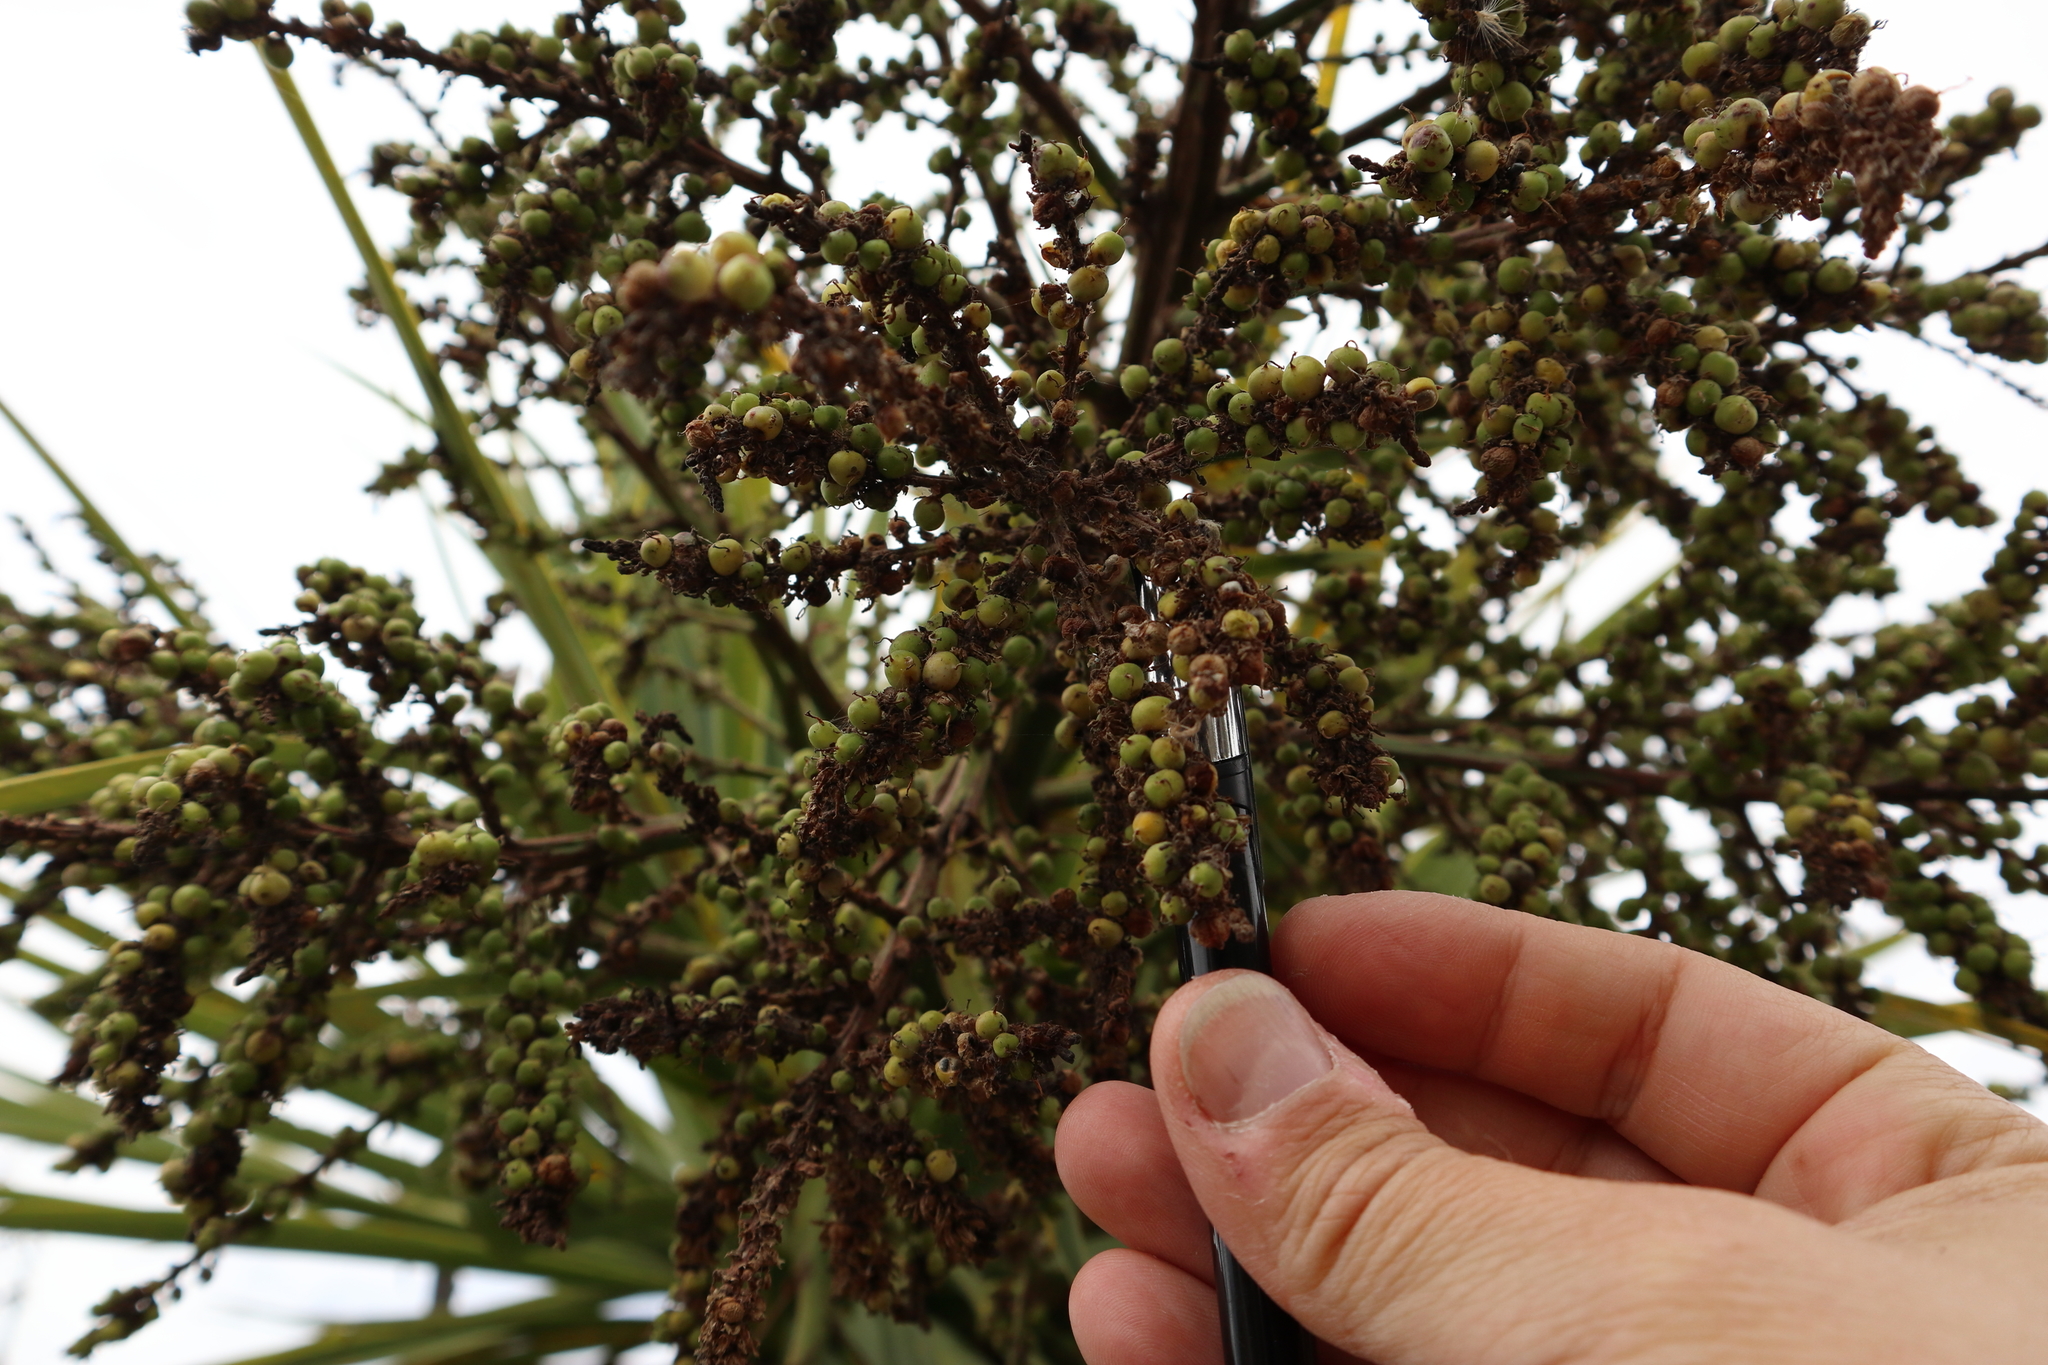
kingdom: Plantae
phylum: Tracheophyta
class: Liliopsida
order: Asparagales
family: Asparagaceae
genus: Cordyline
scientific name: Cordyline australis
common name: Cabbage-palm
